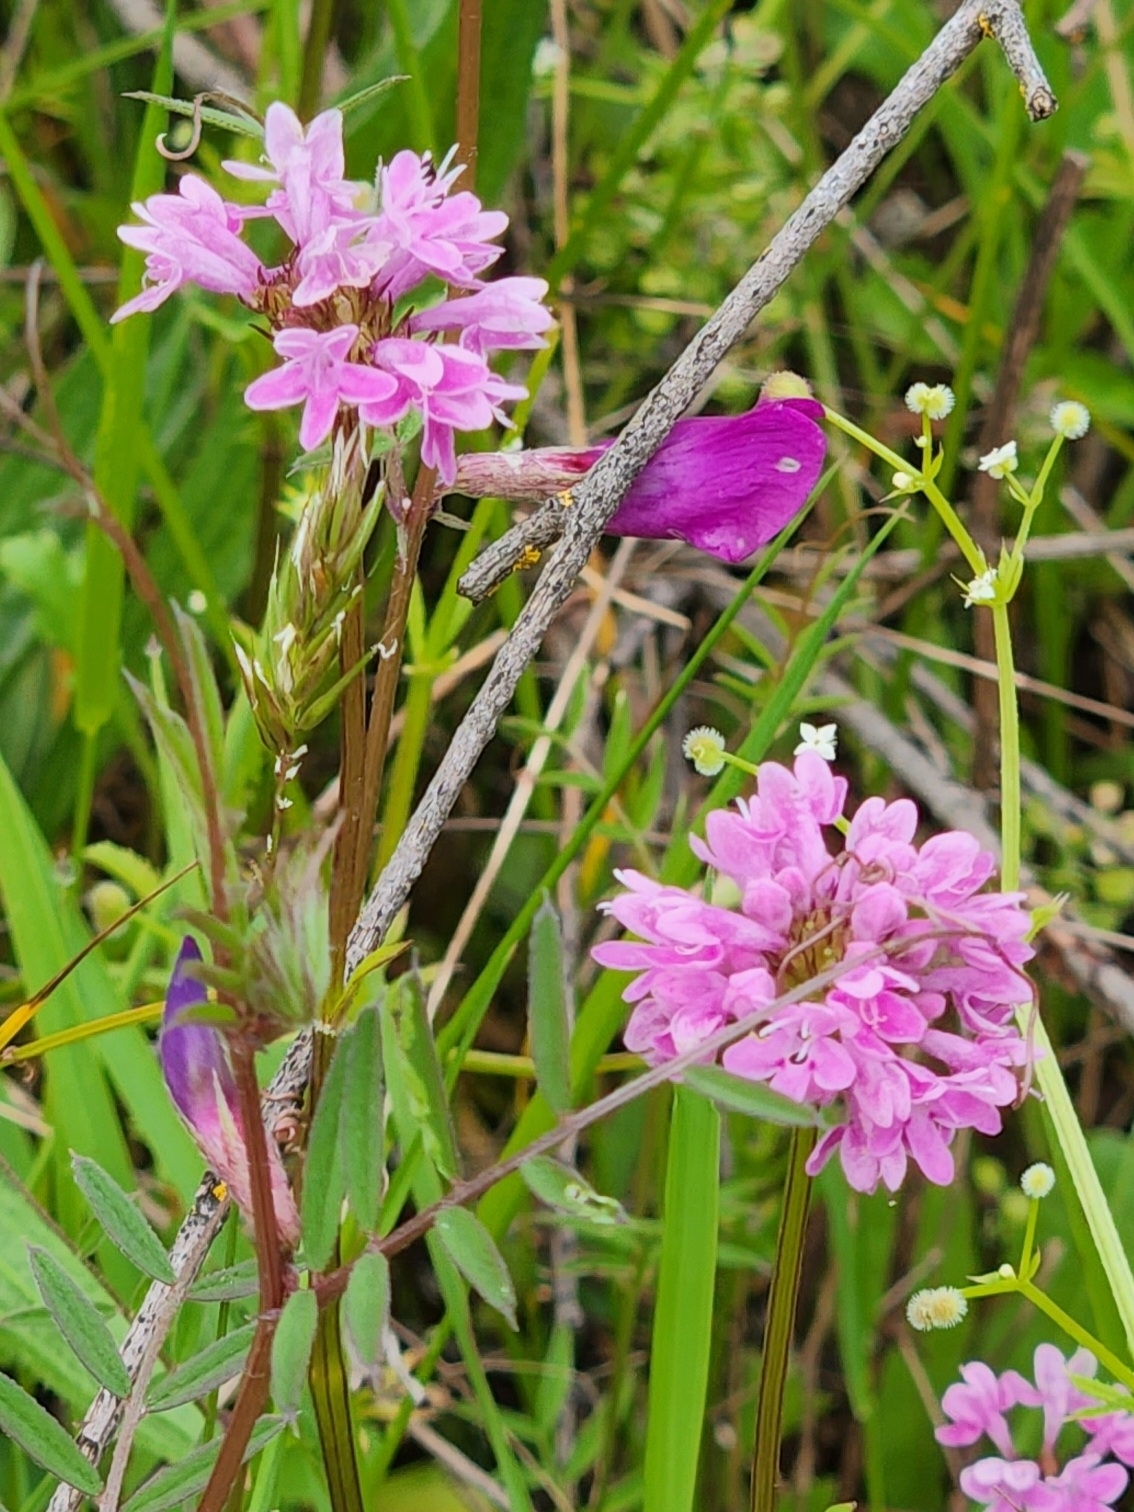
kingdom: Plantae
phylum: Tracheophyta
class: Magnoliopsida
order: Dipsacales
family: Caprifoliaceae
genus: Plectritis
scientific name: Plectritis congesta
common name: Pink plectritis
